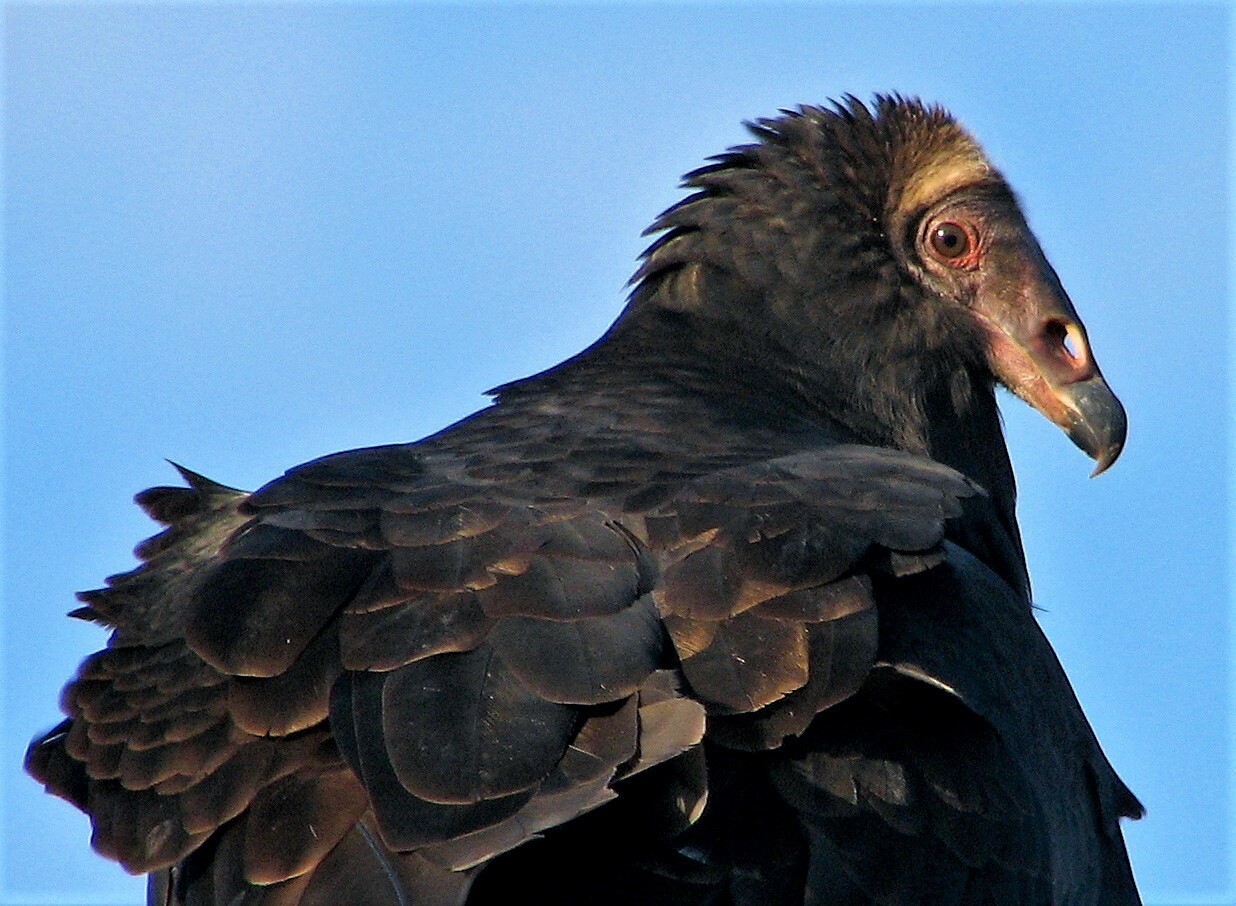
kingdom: Animalia
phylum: Chordata
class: Aves
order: Accipitriformes
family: Cathartidae
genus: Cathartes
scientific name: Cathartes aura
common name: Turkey vulture
